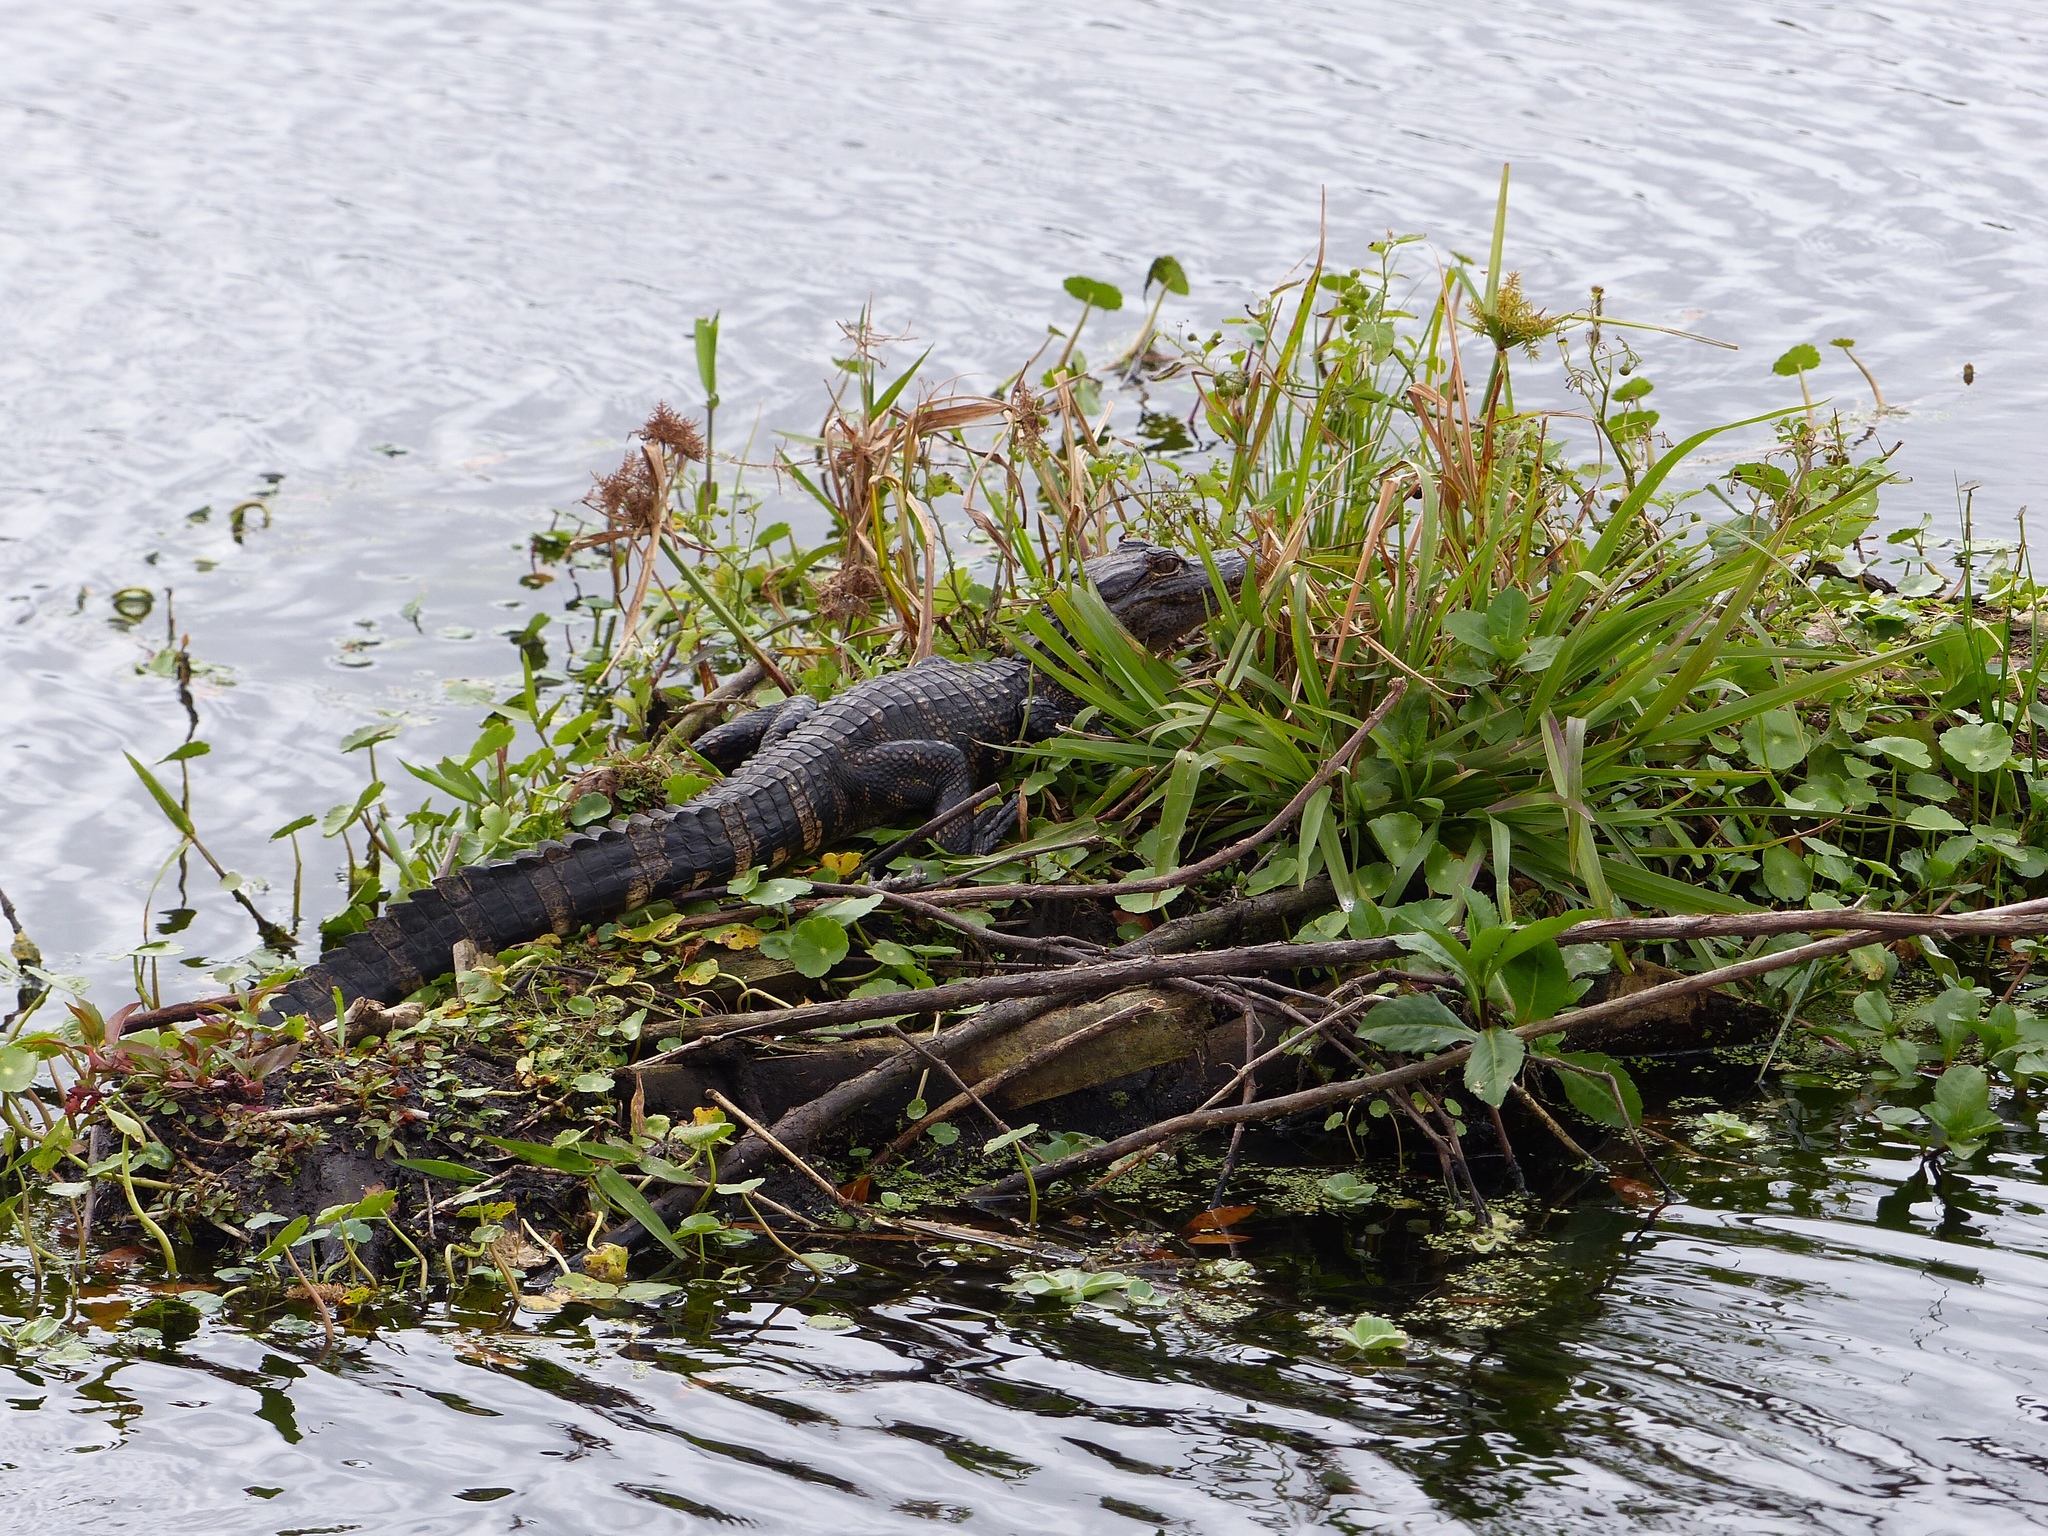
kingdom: Animalia
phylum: Chordata
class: Crocodylia
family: Alligatoridae
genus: Alligator
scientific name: Alligator mississippiensis
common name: American alligator
